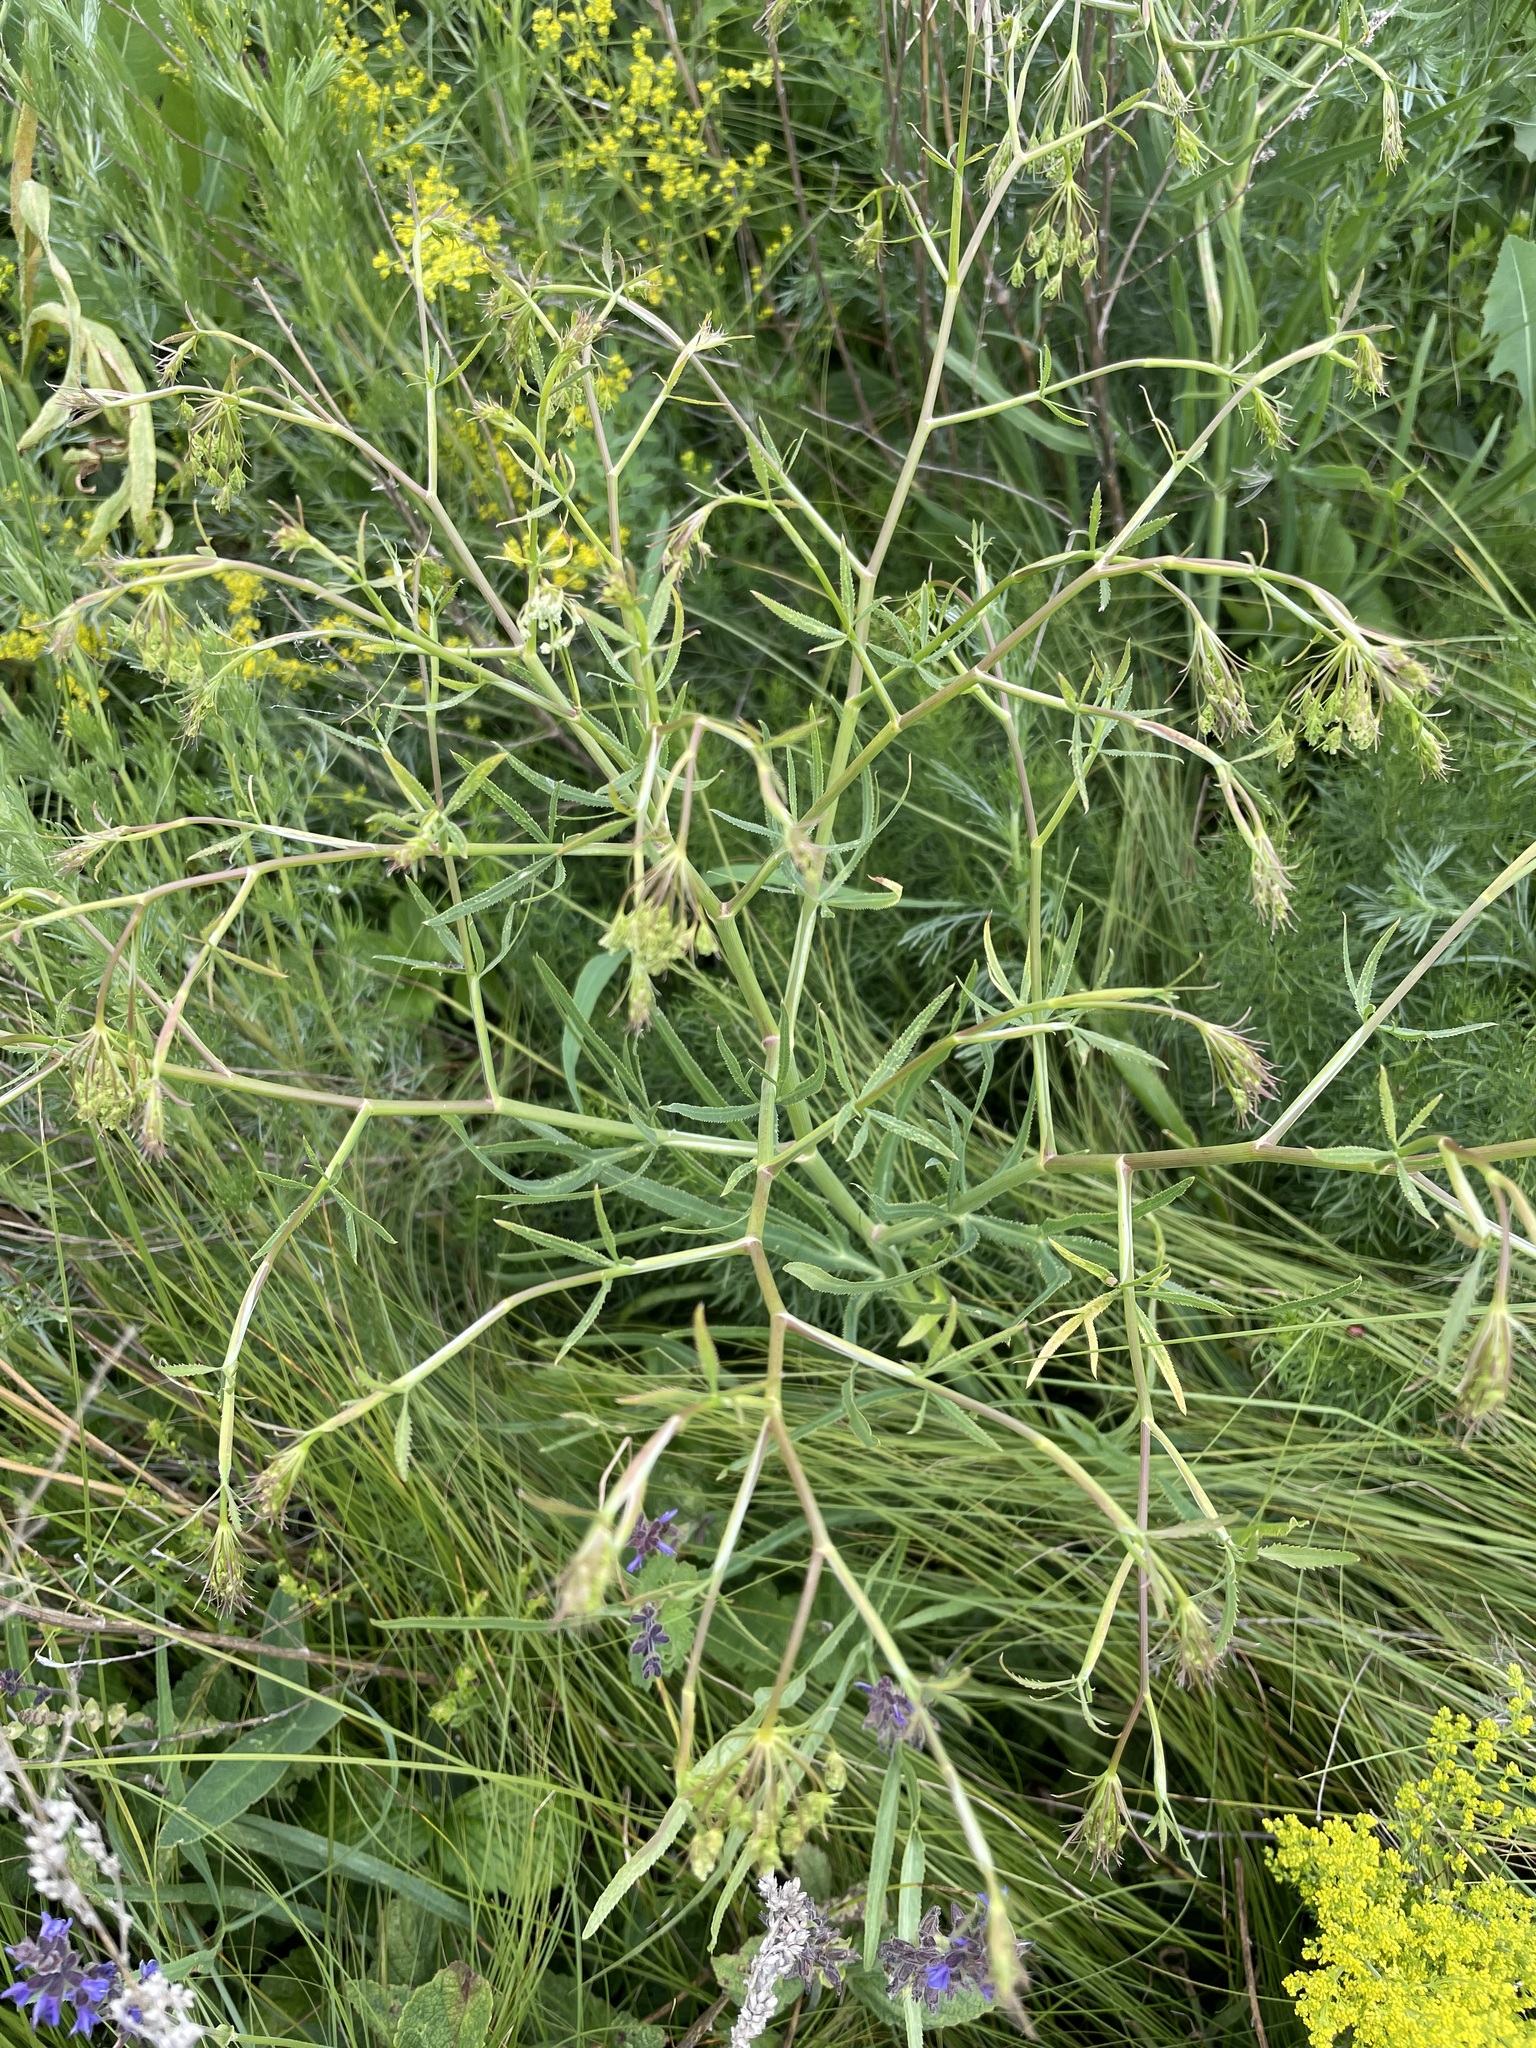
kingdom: Plantae
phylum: Tracheophyta
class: Magnoliopsida
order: Apiales
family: Apiaceae
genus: Falcaria
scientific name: Falcaria vulgaris
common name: Longleaf
